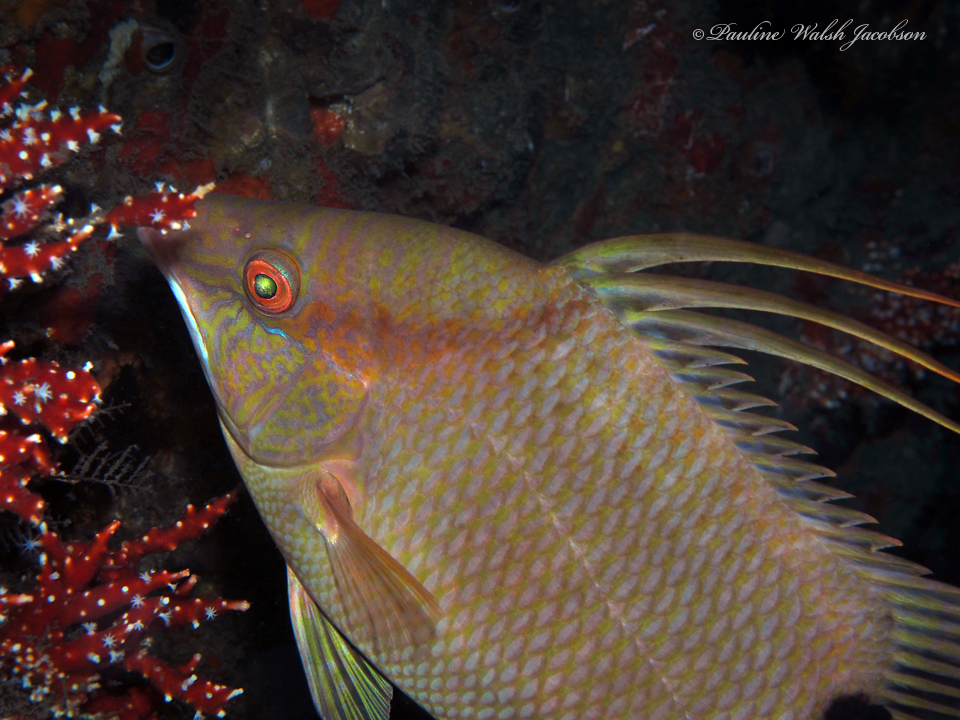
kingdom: Animalia
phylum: Chordata
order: Perciformes
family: Labridae
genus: Lachnolaimus
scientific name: Lachnolaimus maximus
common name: Hogfish
